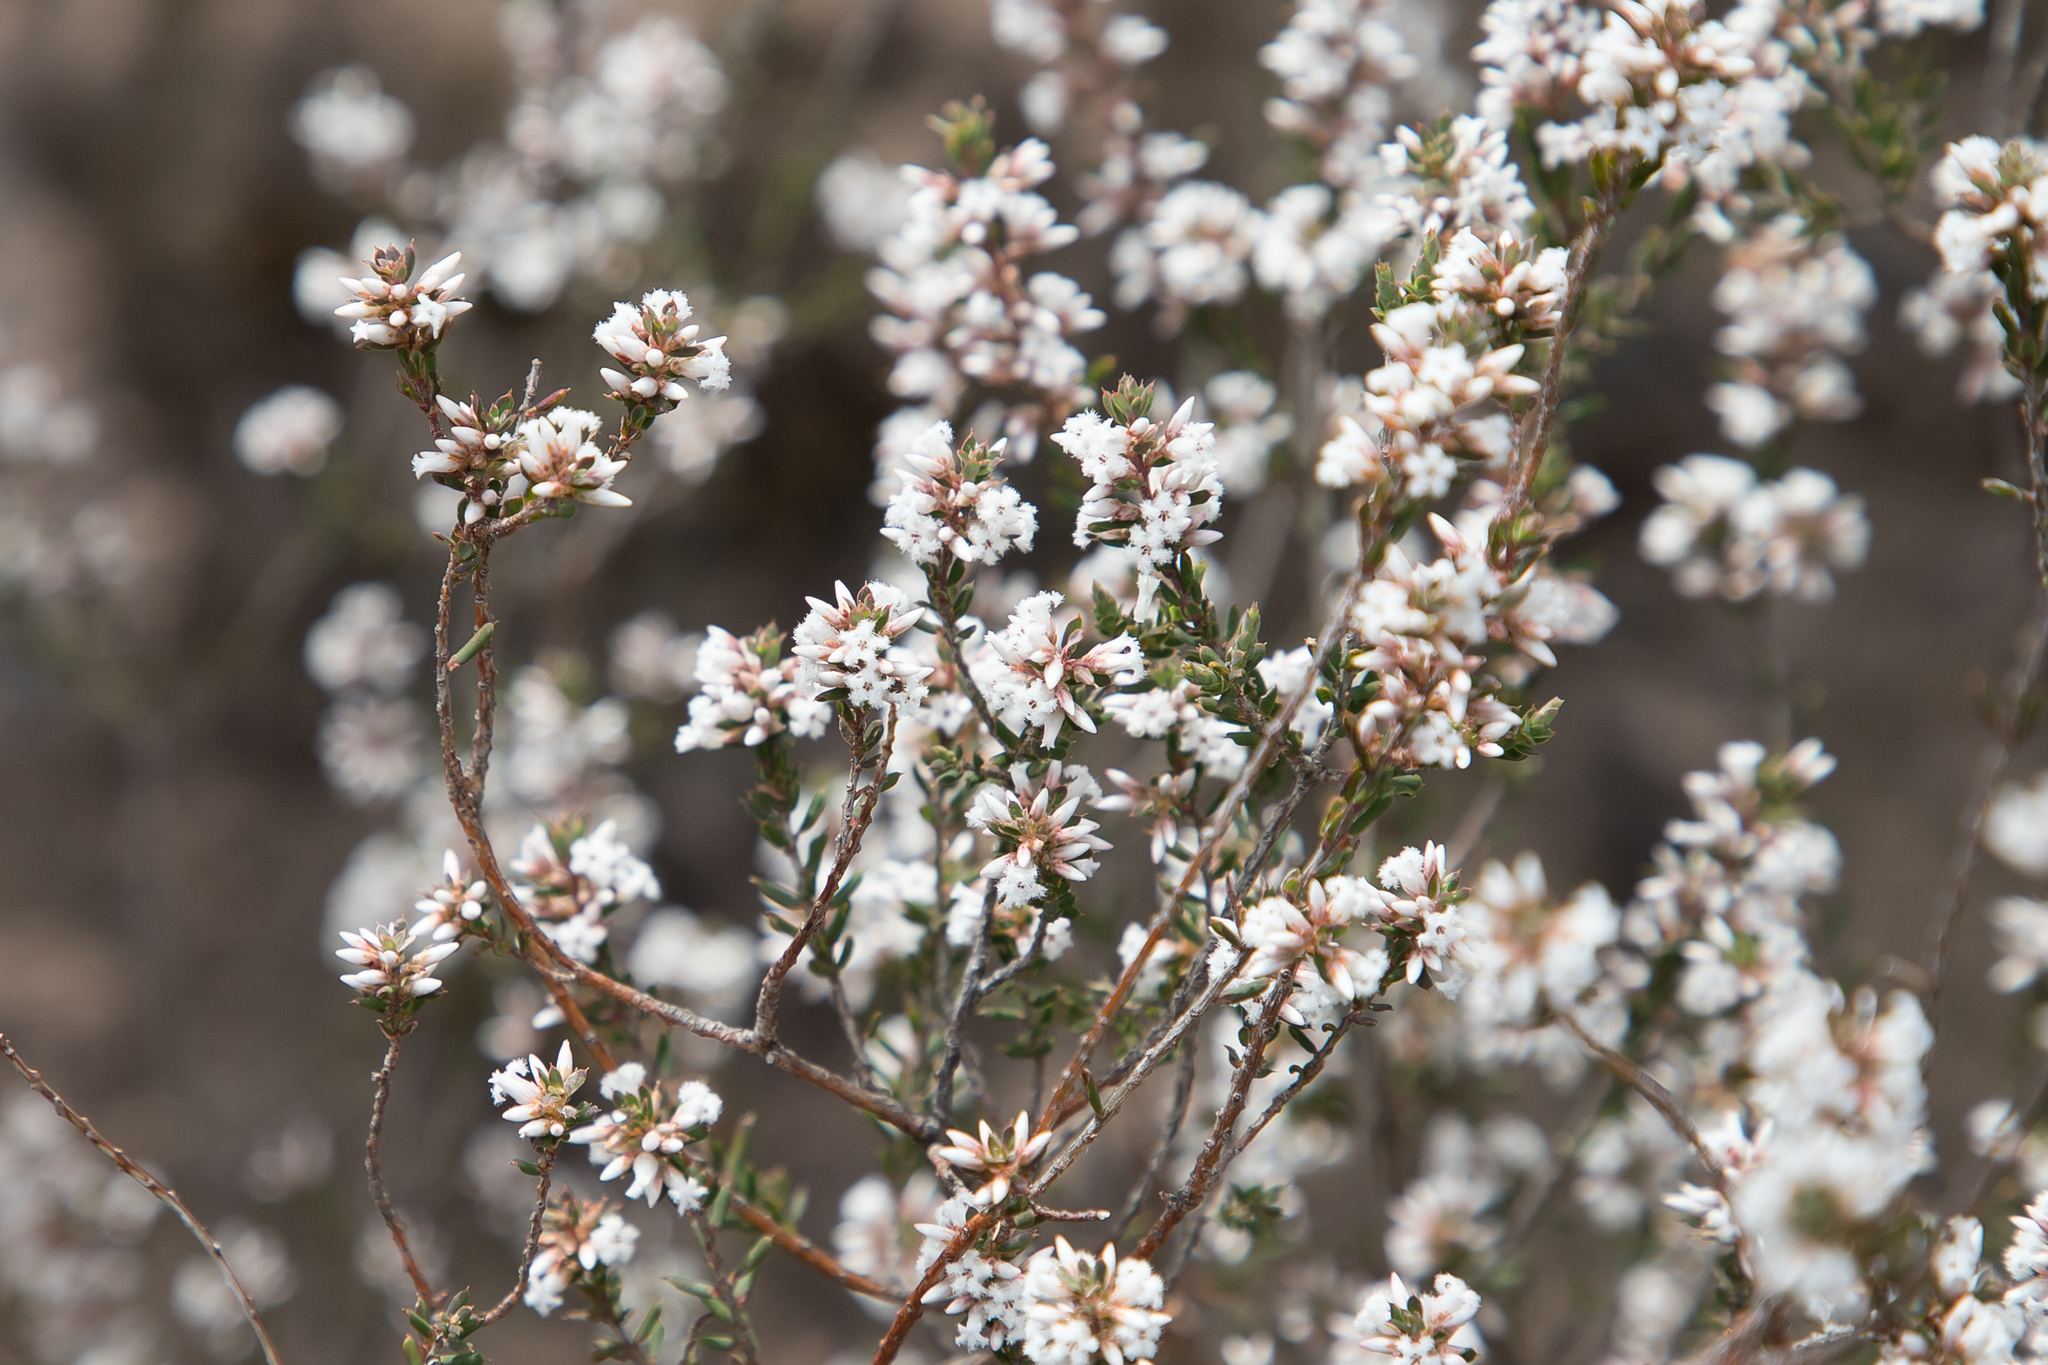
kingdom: Plantae
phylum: Tracheophyta
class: Magnoliopsida
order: Ericales
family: Ericaceae
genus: Styphelia
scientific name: Styphelia ericoides
